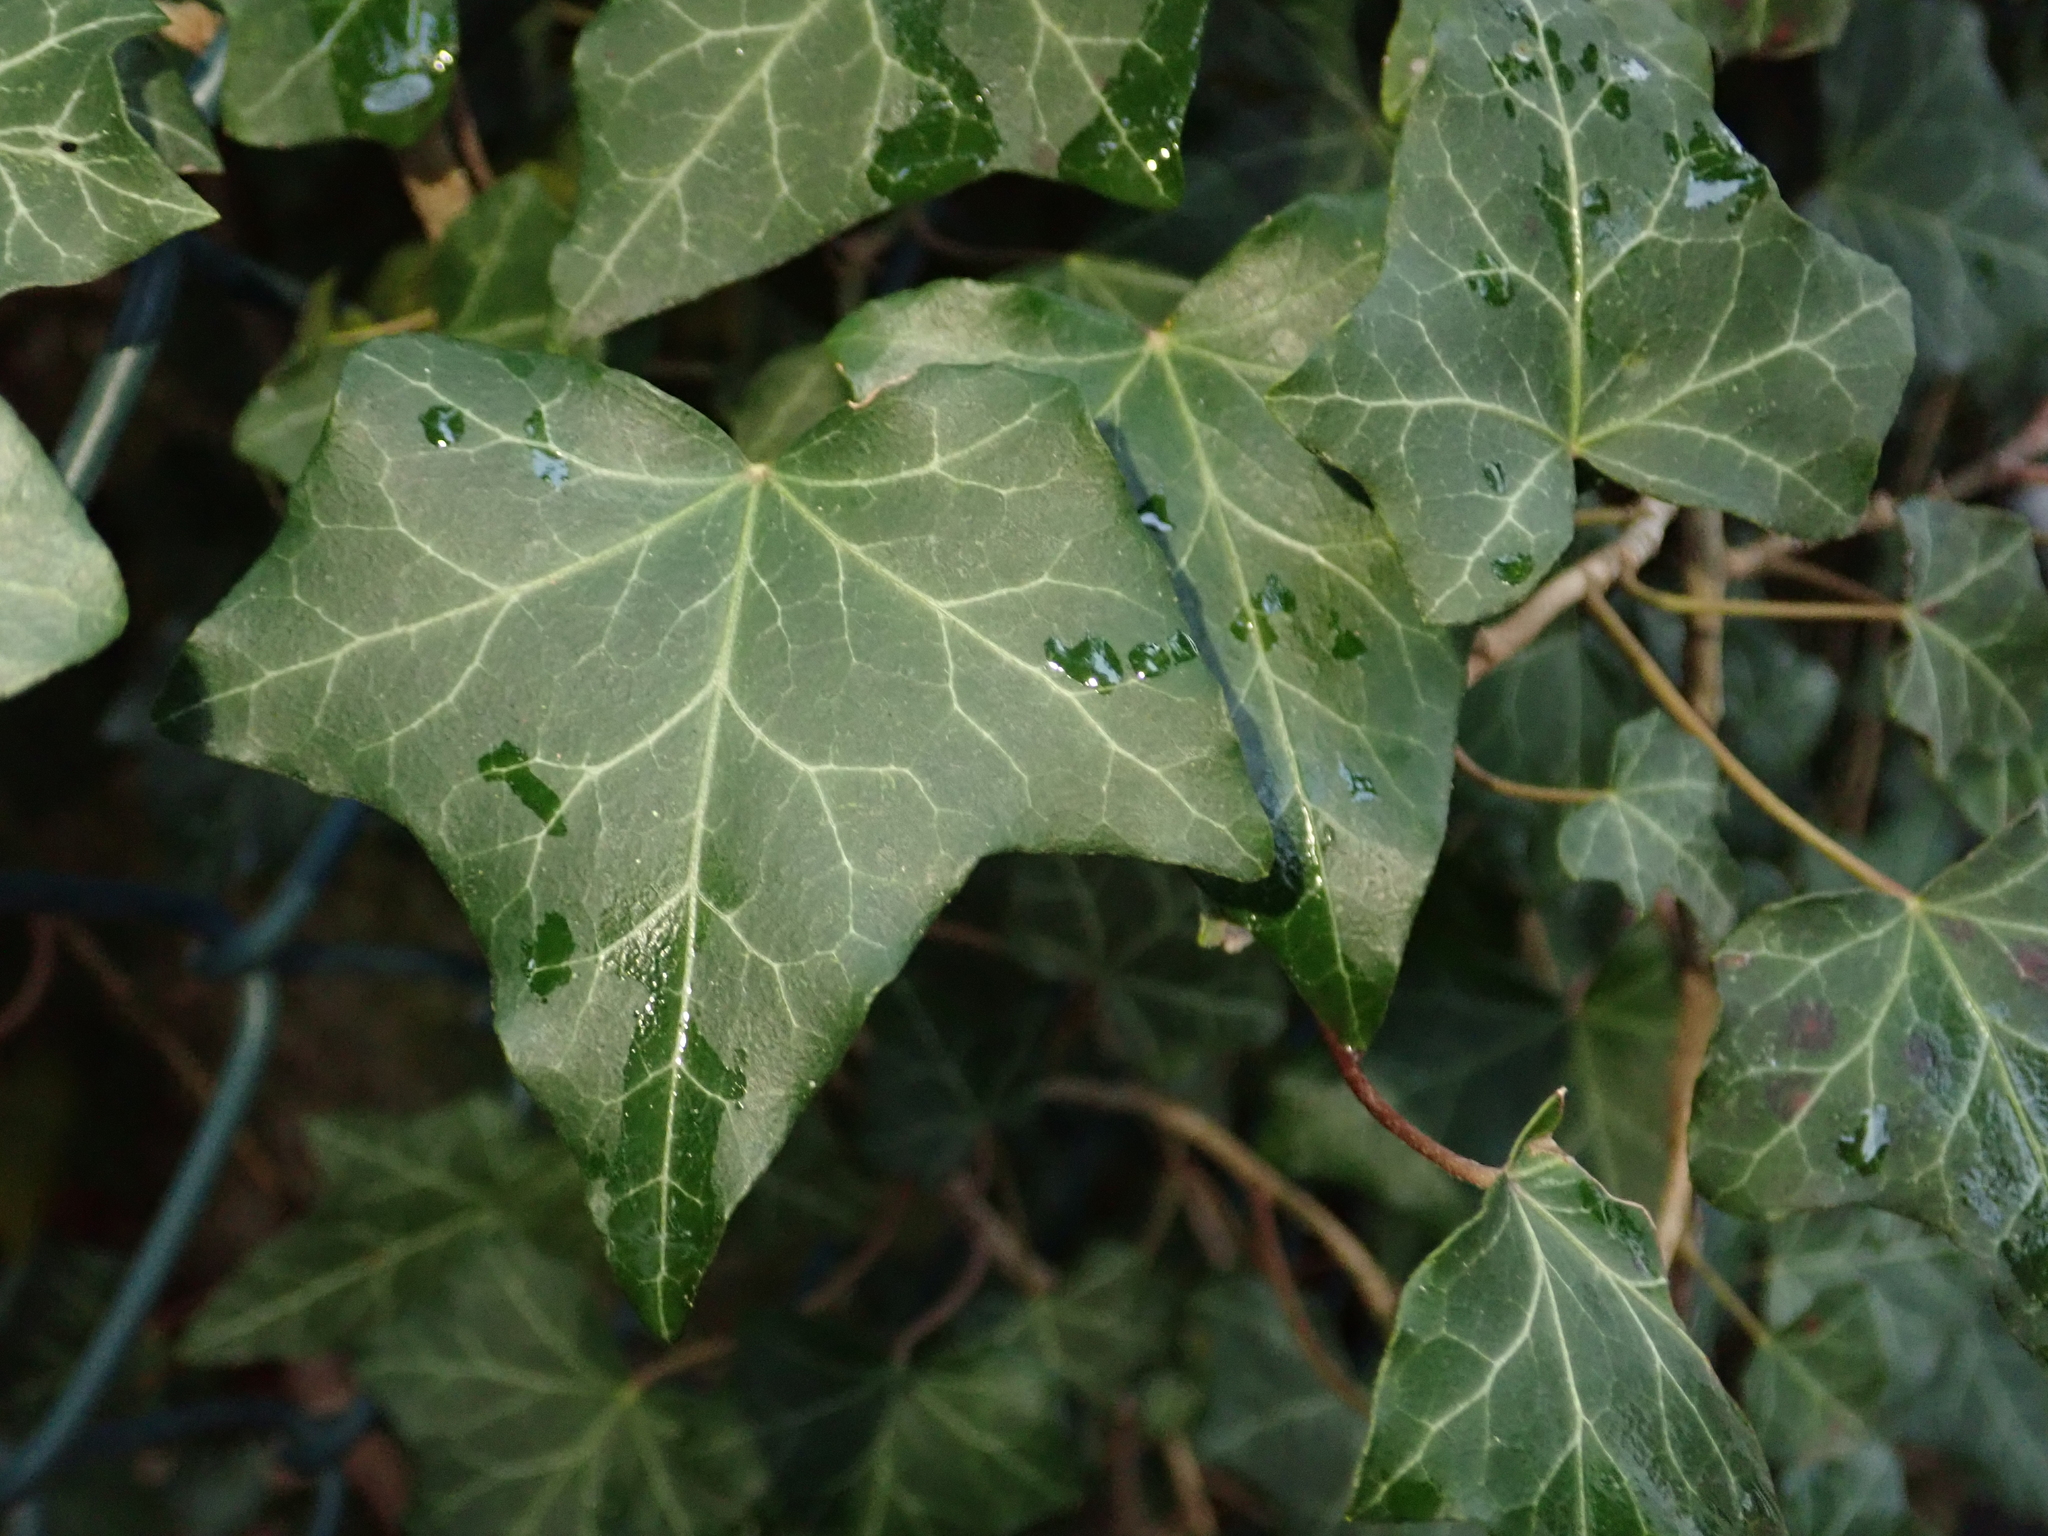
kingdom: Plantae
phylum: Tracheophyta
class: Magnoliopsida
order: Apiales
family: Araliaceae
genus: Hedera
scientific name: Hedera helix
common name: Ivy
